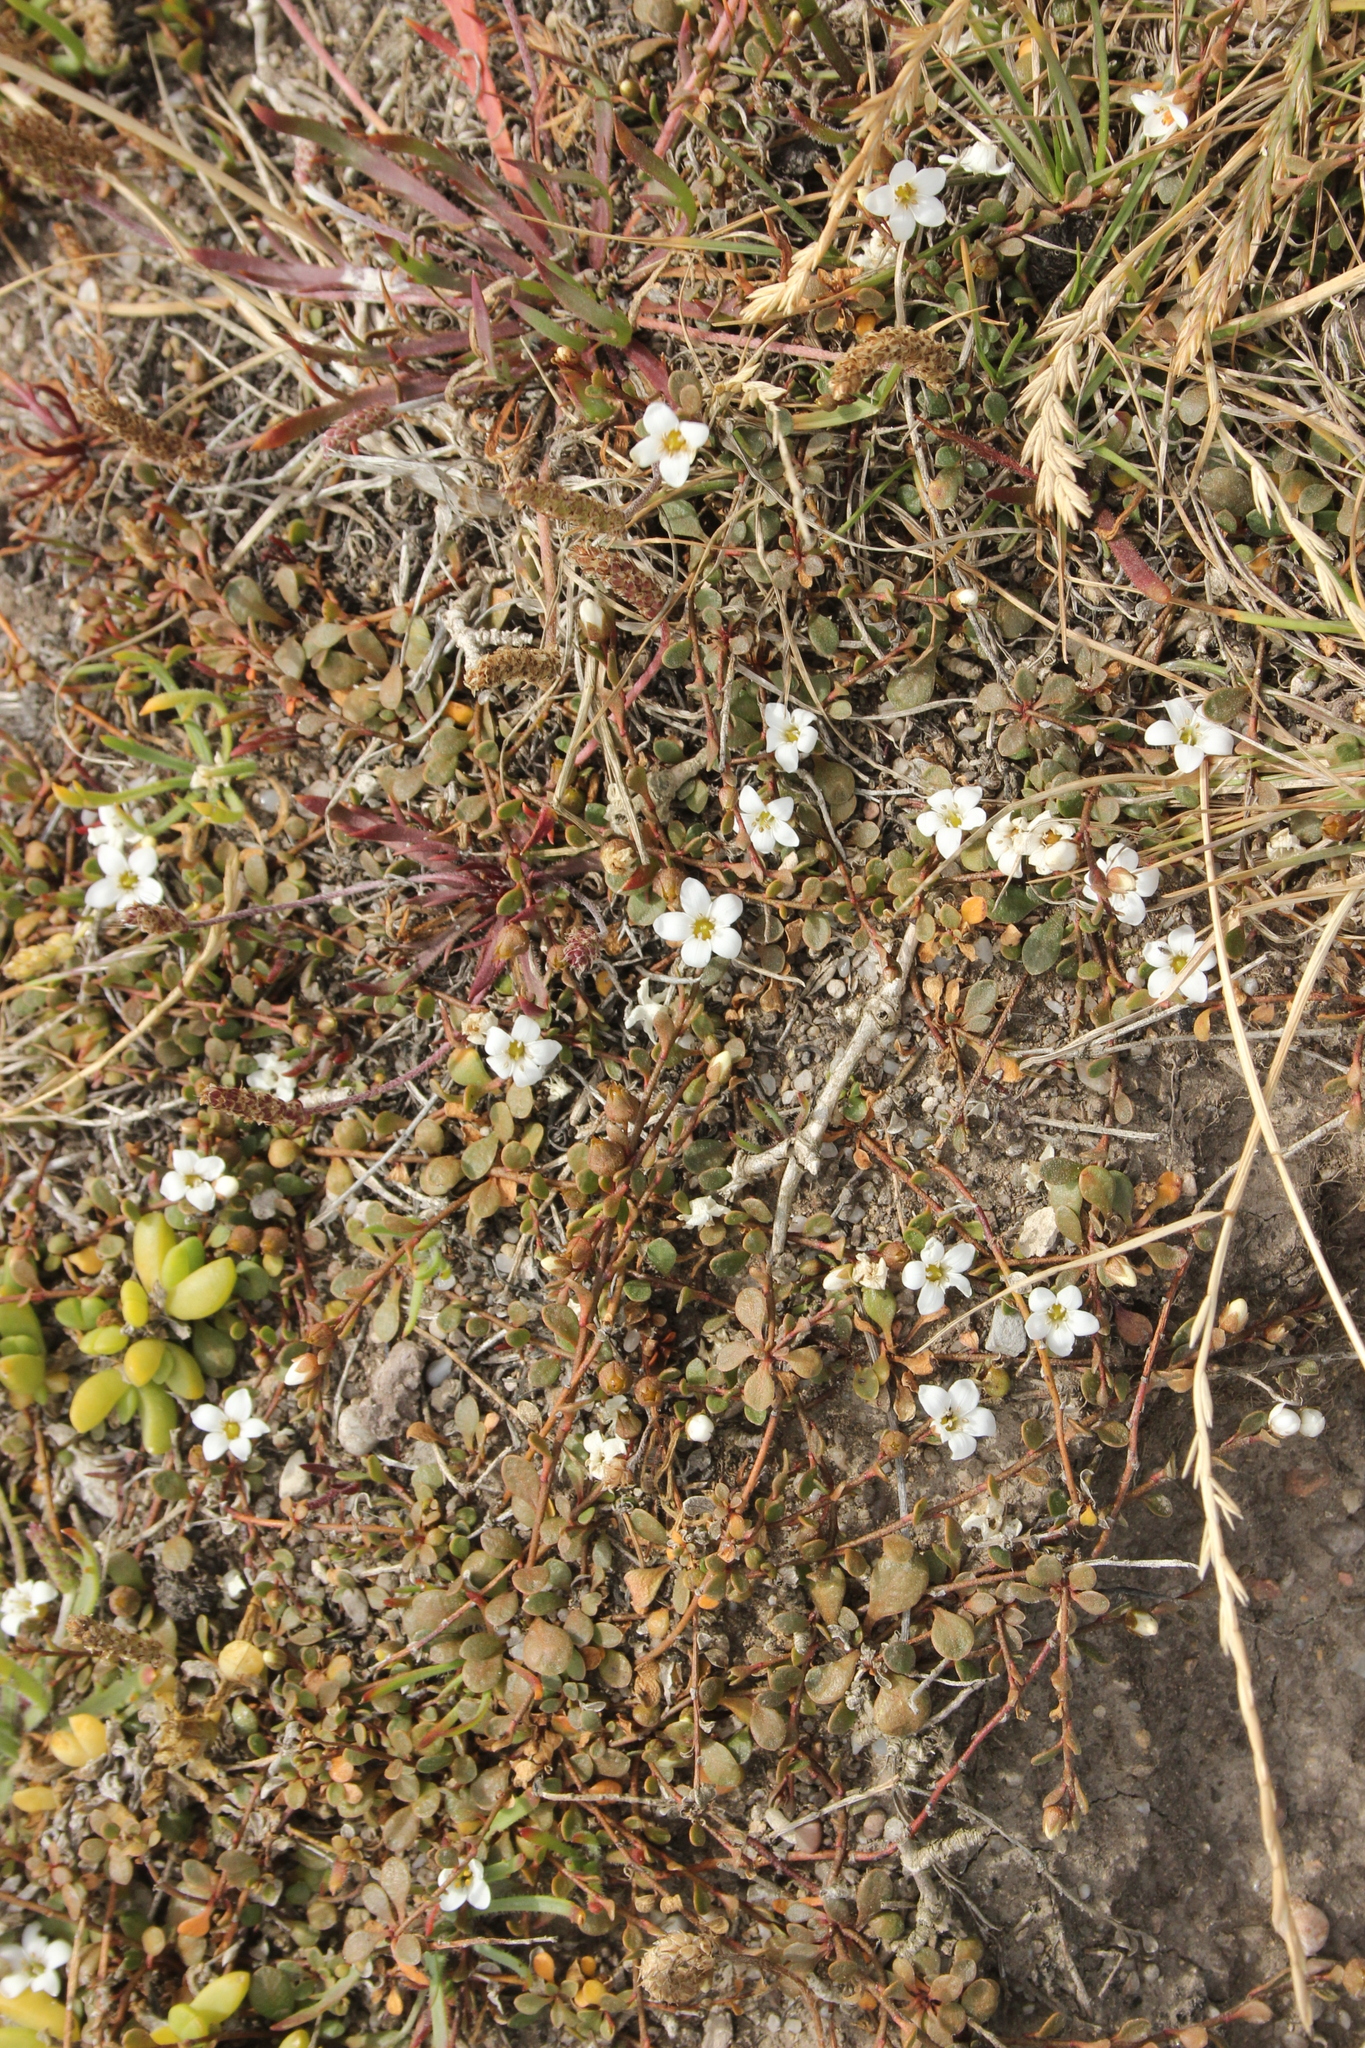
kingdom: Plantae
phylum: Tracheophyta
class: Magnoliopsida
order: Ericales
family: Primulaceae
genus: Samolus
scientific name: Samolus repens
